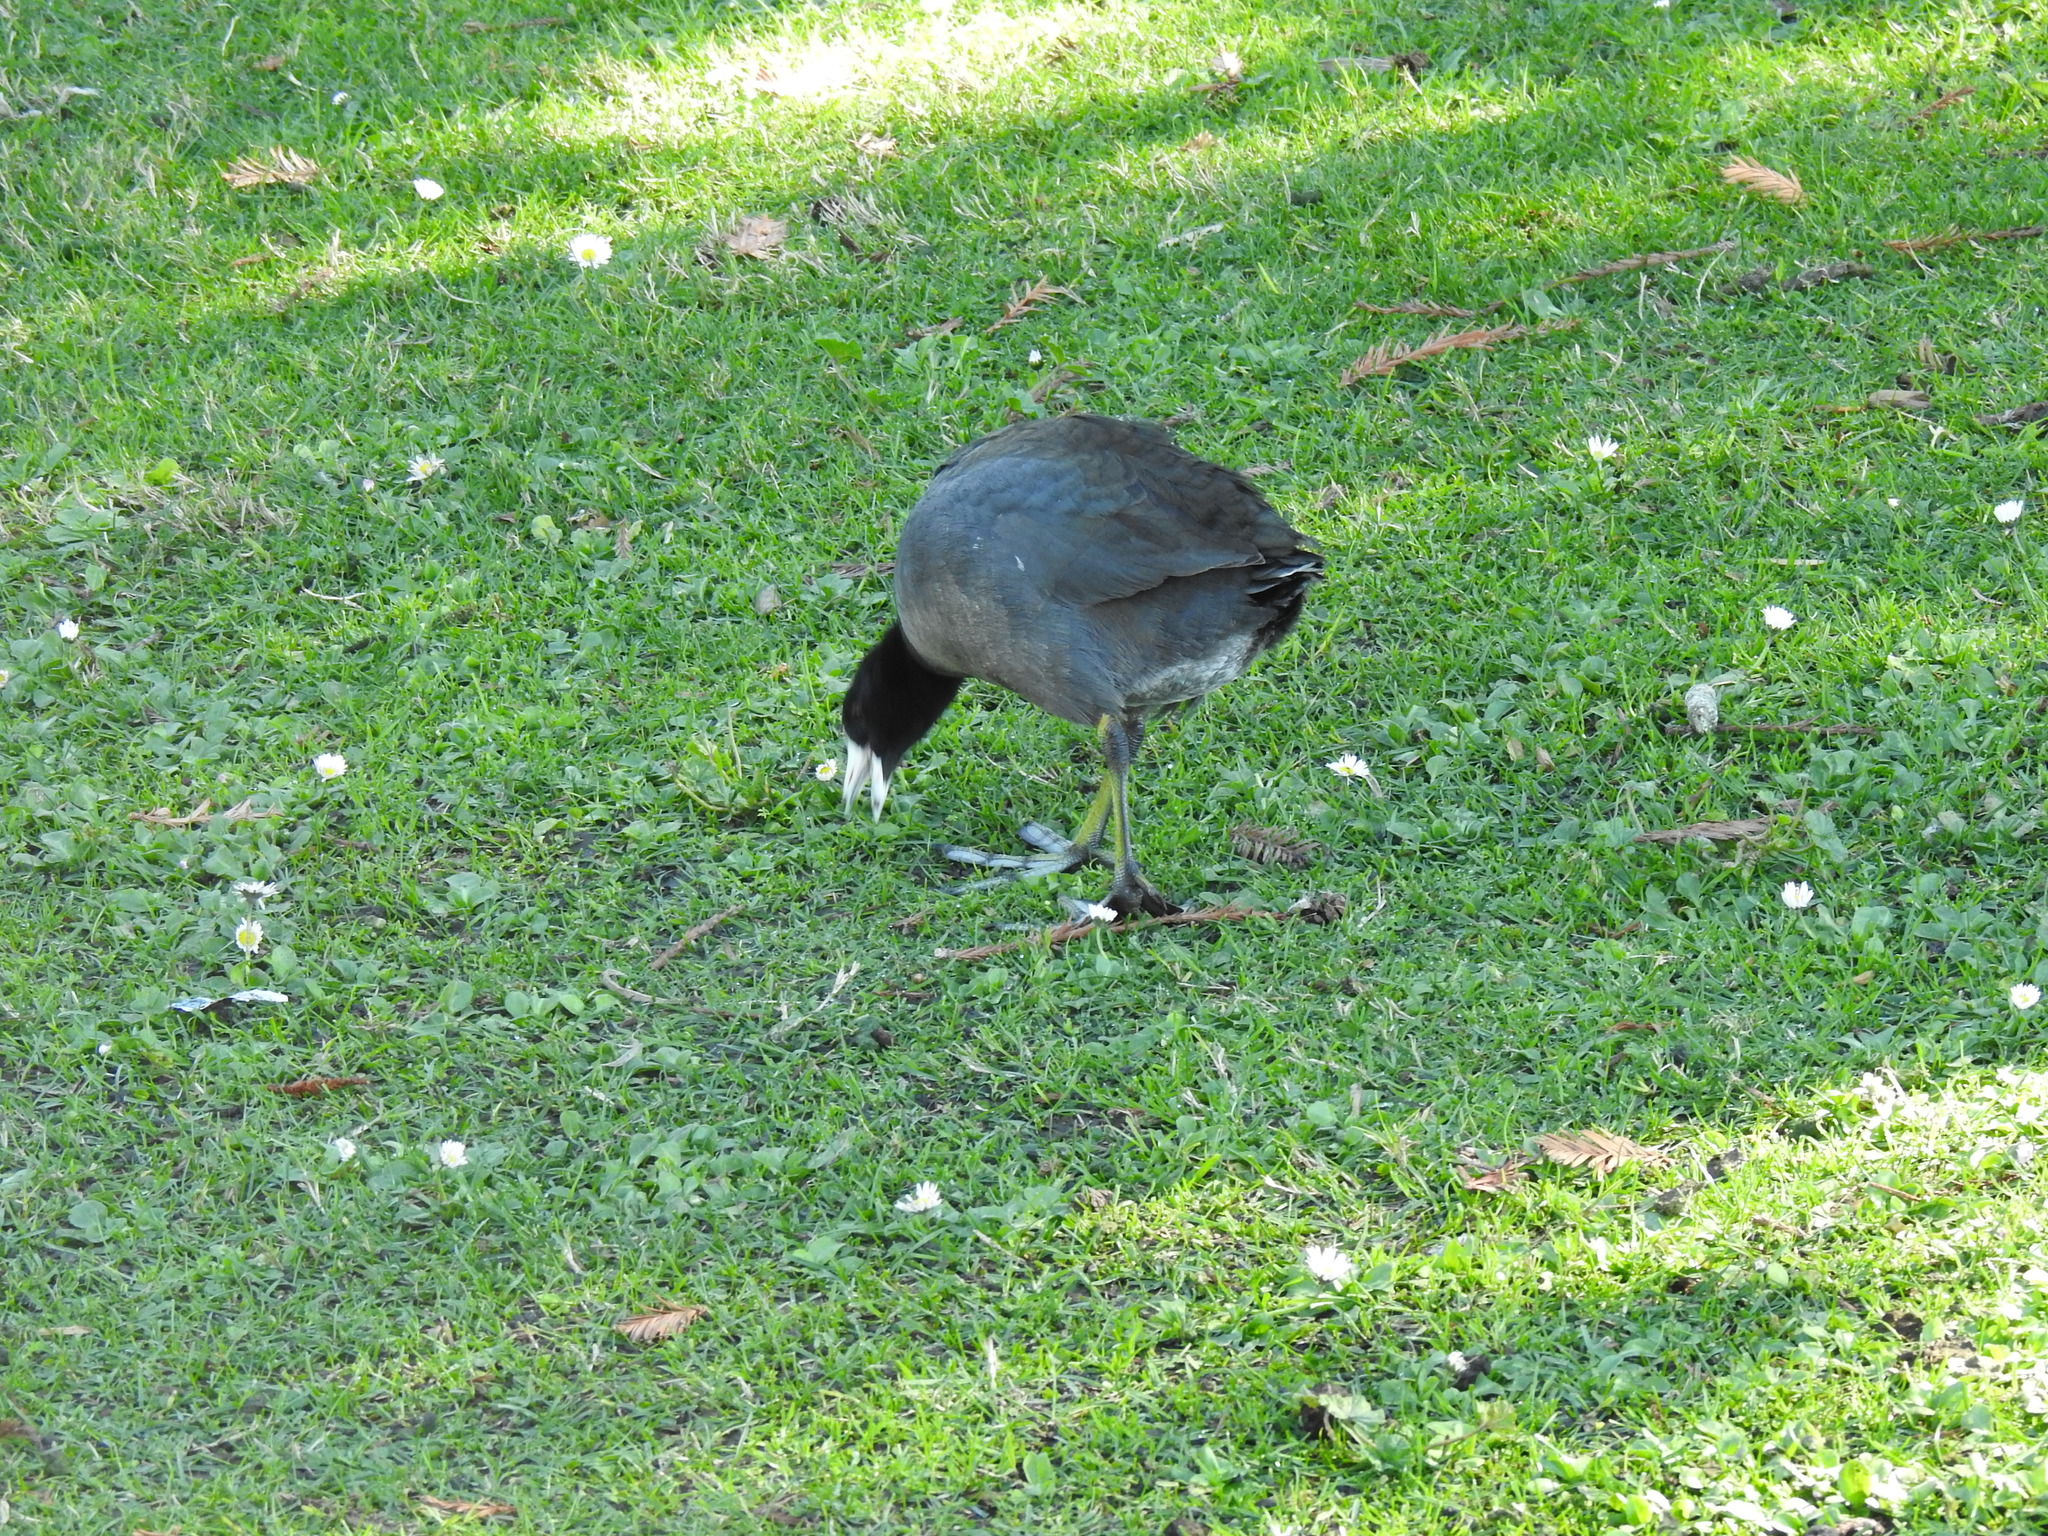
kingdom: Animalia
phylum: Chordata
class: Aves
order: Gruiformes
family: Rallidae
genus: Fulica
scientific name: Fulica americana
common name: American coot
